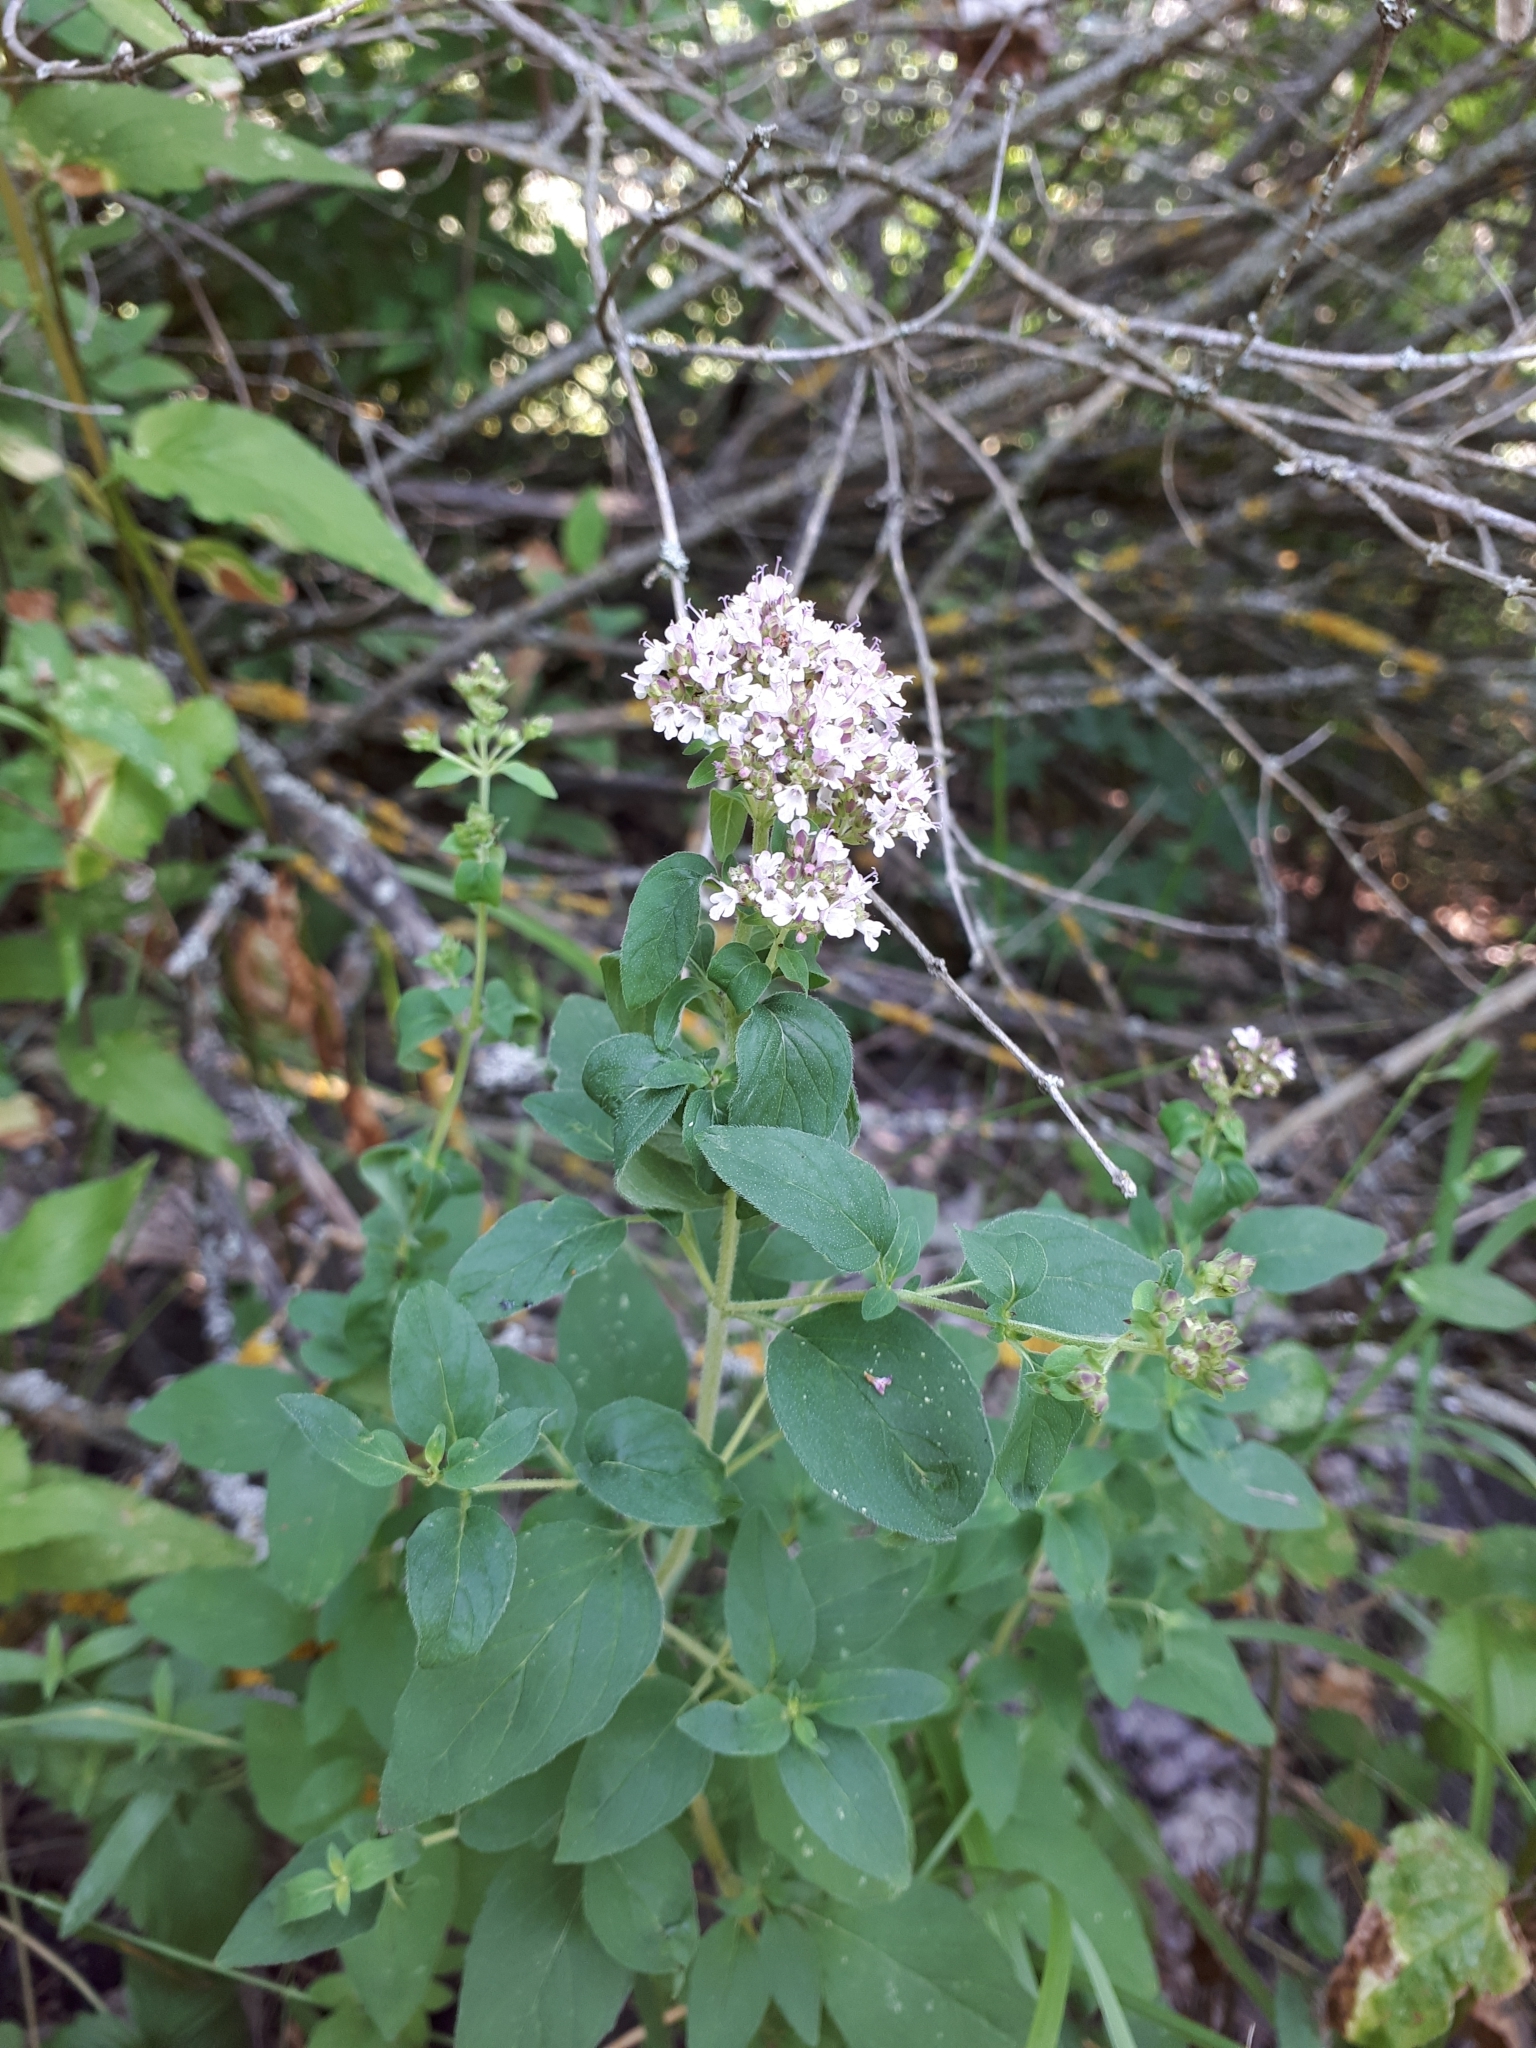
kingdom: Plantae
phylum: Tracheophyta
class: Magnoliopsida
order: Lamiales
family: Lamiaceae
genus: Origanum
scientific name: Origanum vulgare
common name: Wild marjoram
